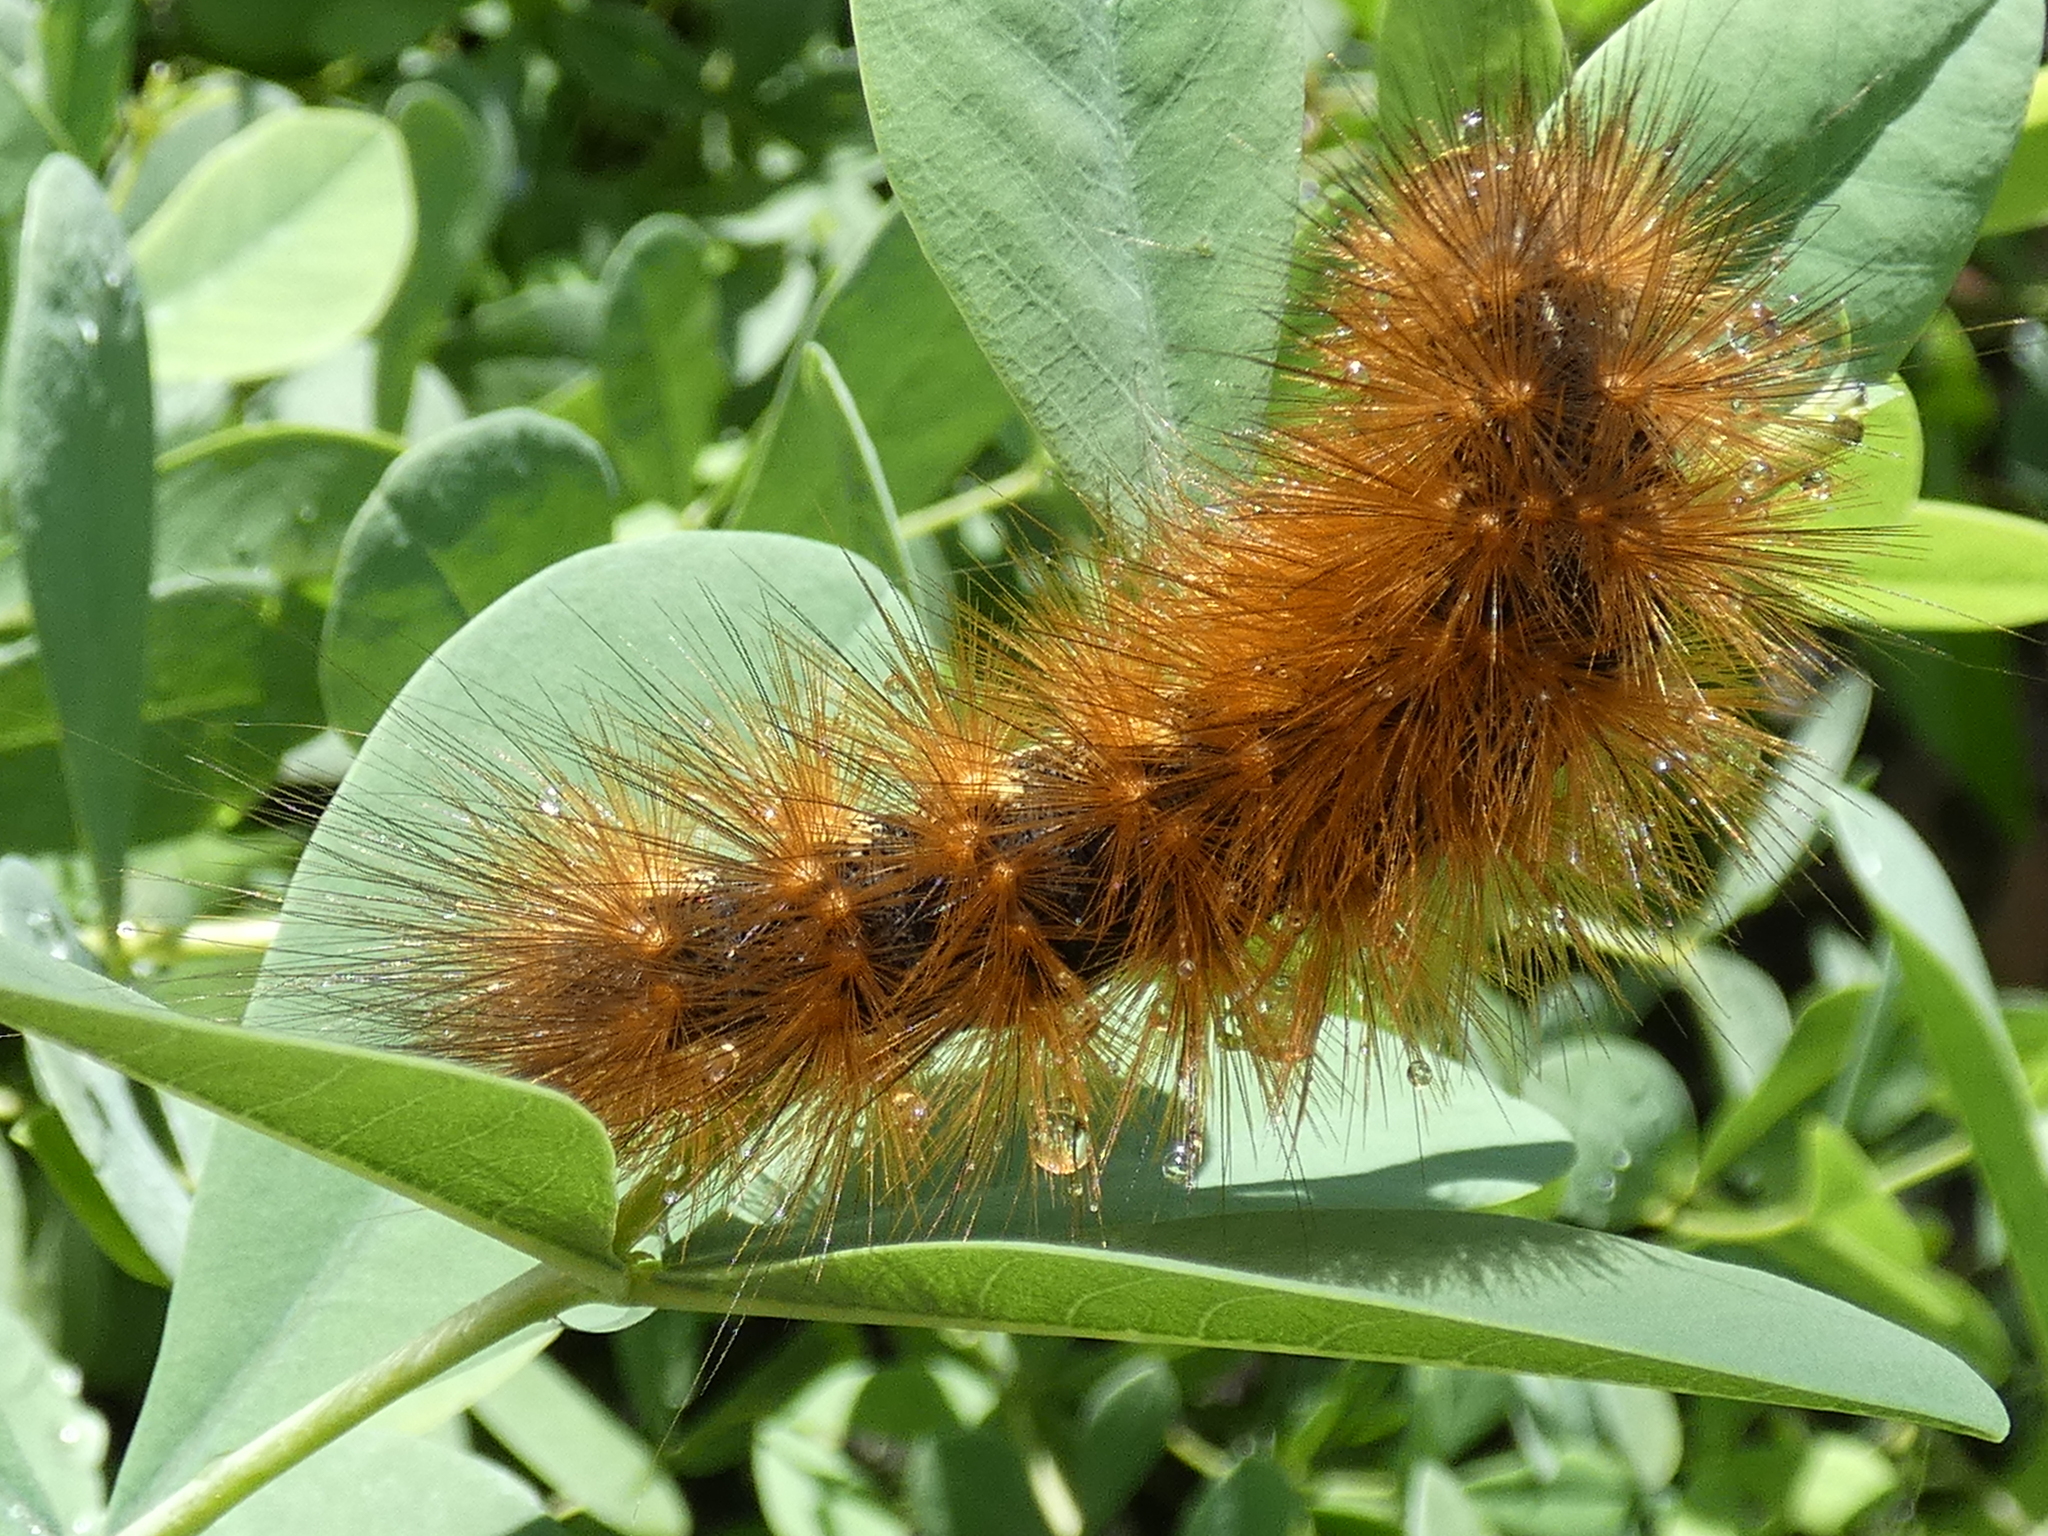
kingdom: Animalia
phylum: Arthropoda
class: Insecta
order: Lepidoptera
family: Erebidae
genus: Estigmene
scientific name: Estigmene acrea
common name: Salt marsh moth
